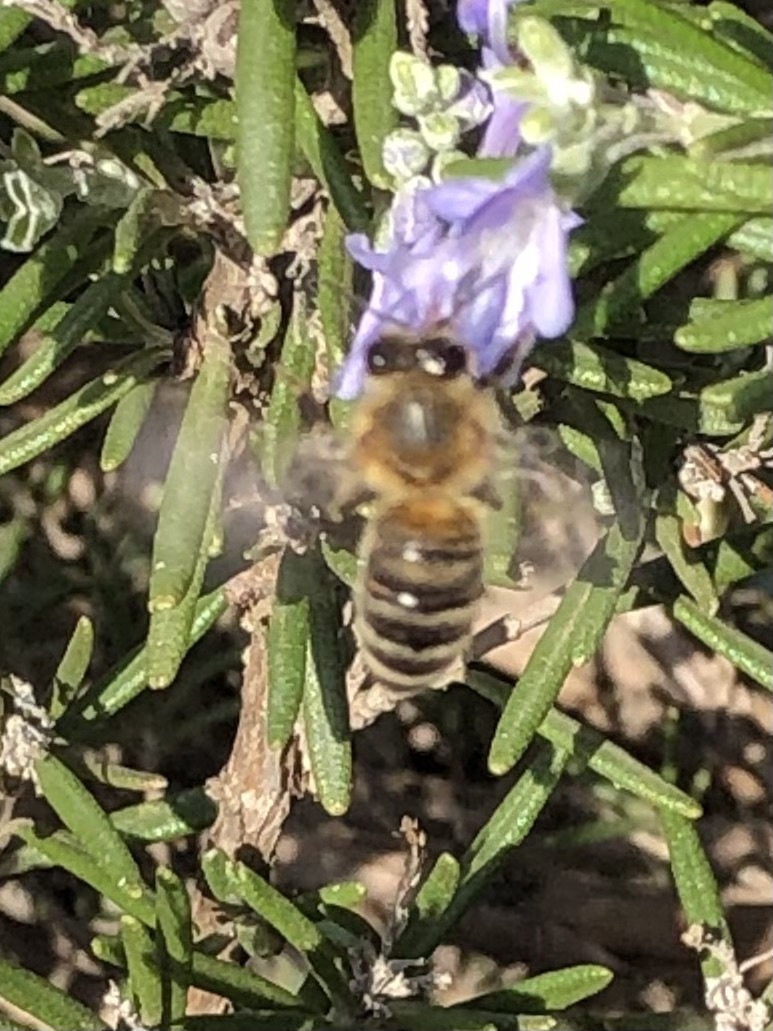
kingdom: Animalia
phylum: Arthropoda
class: Insecta
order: Hymenoptera
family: Apidae
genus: Apis
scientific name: Apis mellifera
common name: Honey bee
